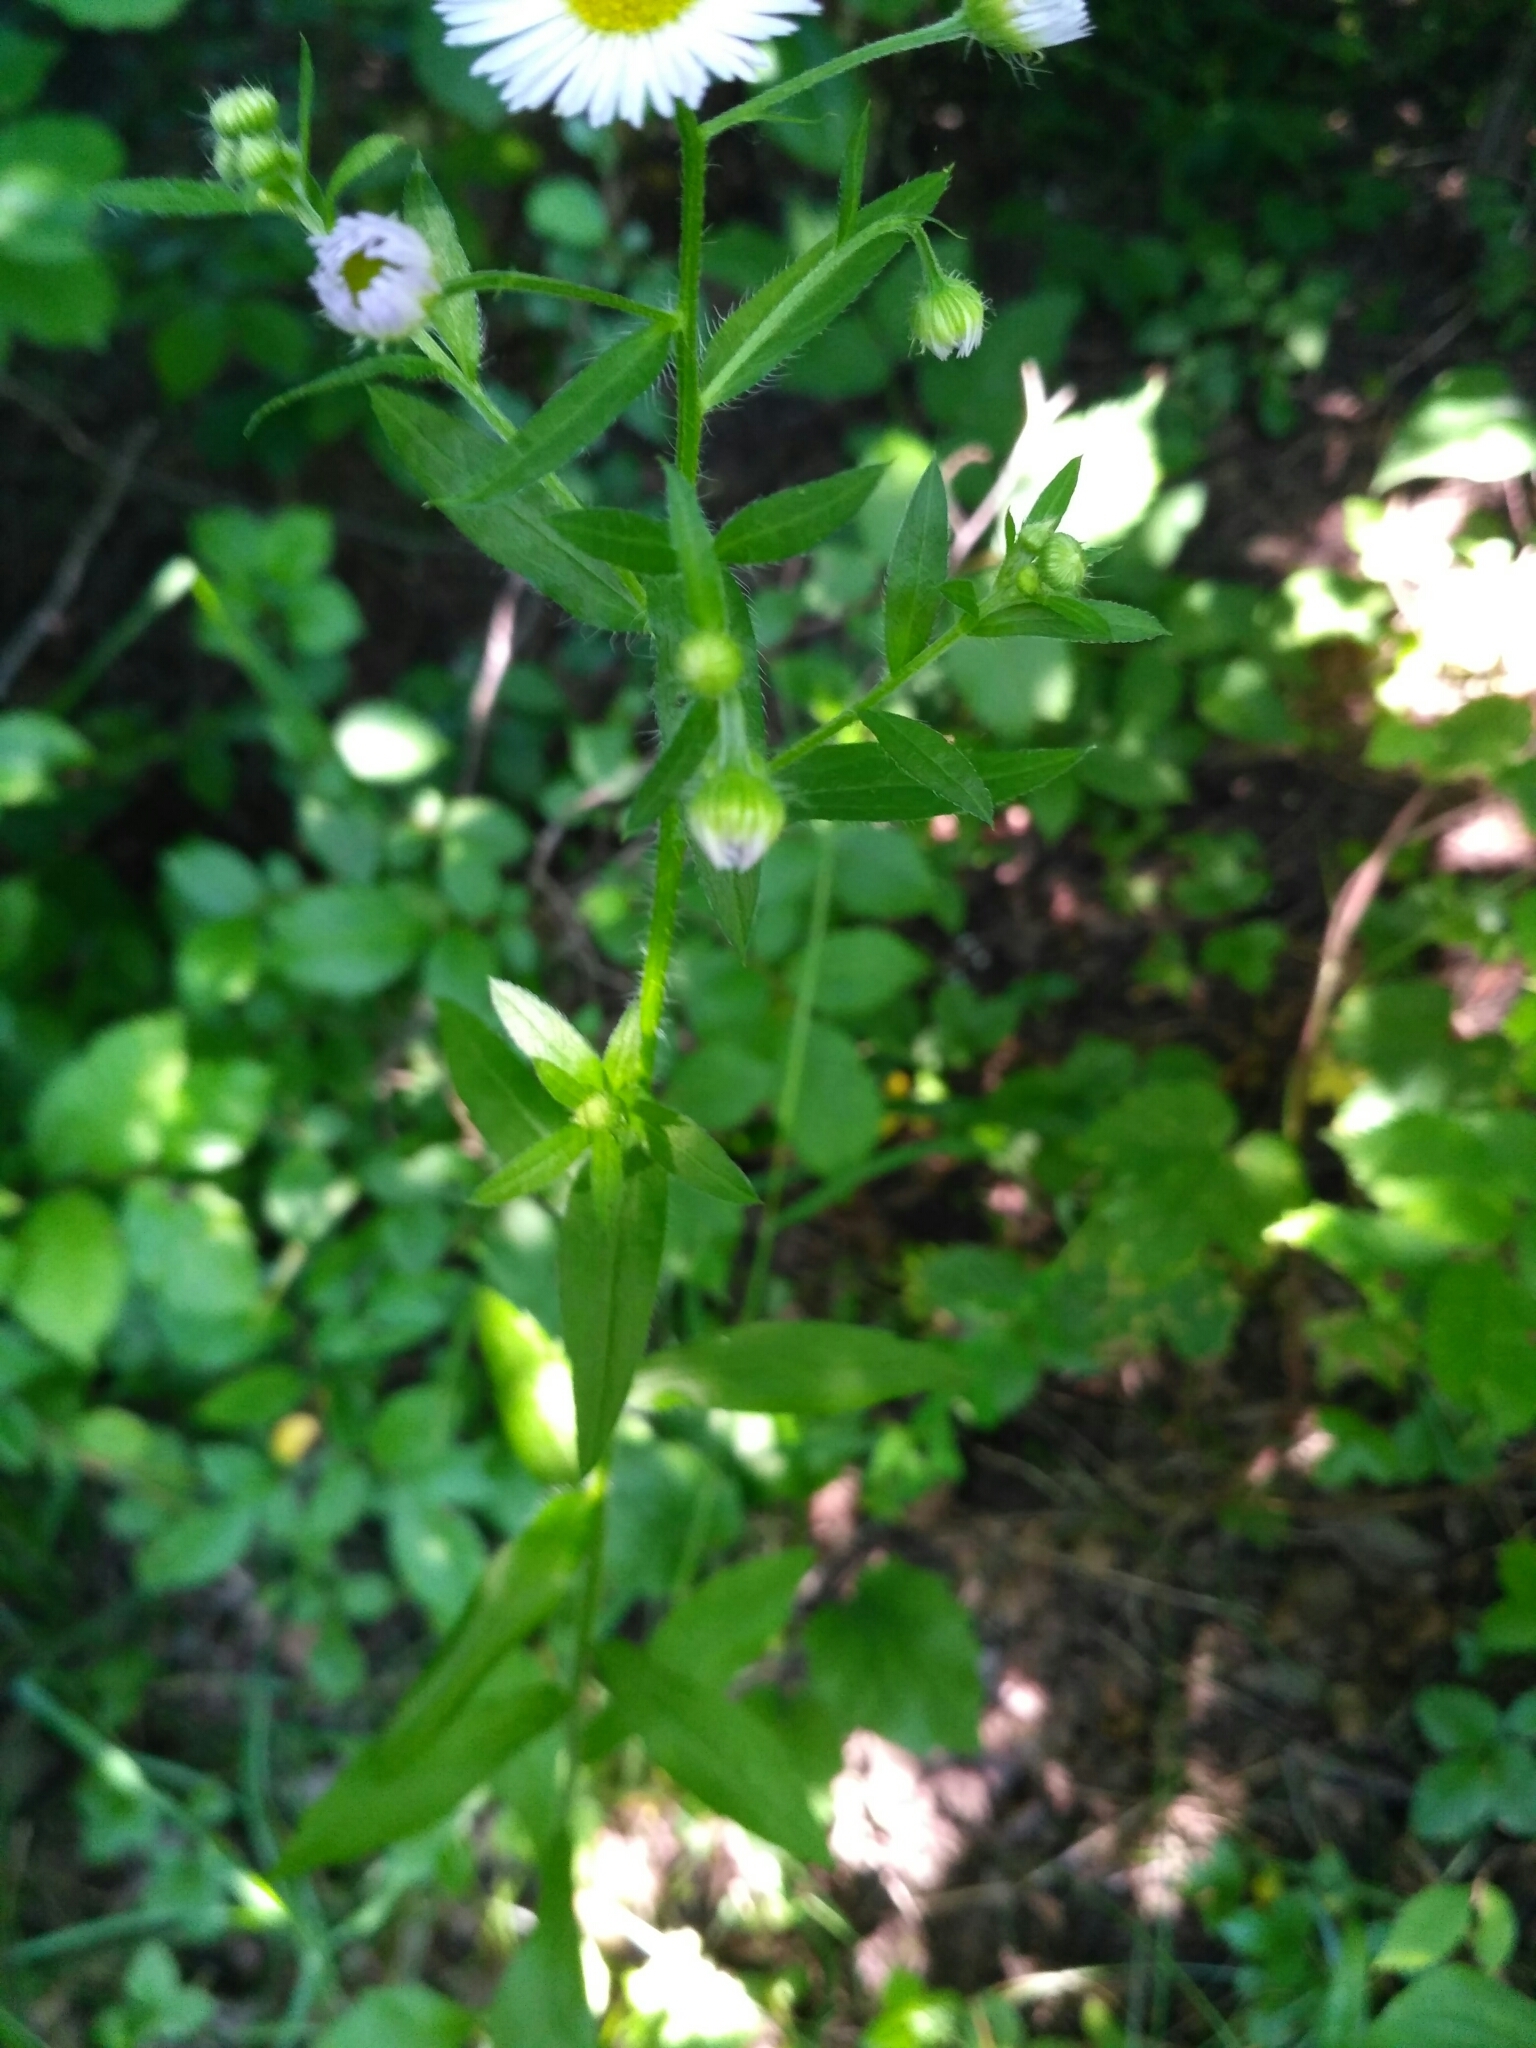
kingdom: Plantae
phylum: Tracheophyta
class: Magnoliopsida
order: Asterales
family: Asteraceae
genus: Erigeron
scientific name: Erigeron annuus
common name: Tall fleabane
